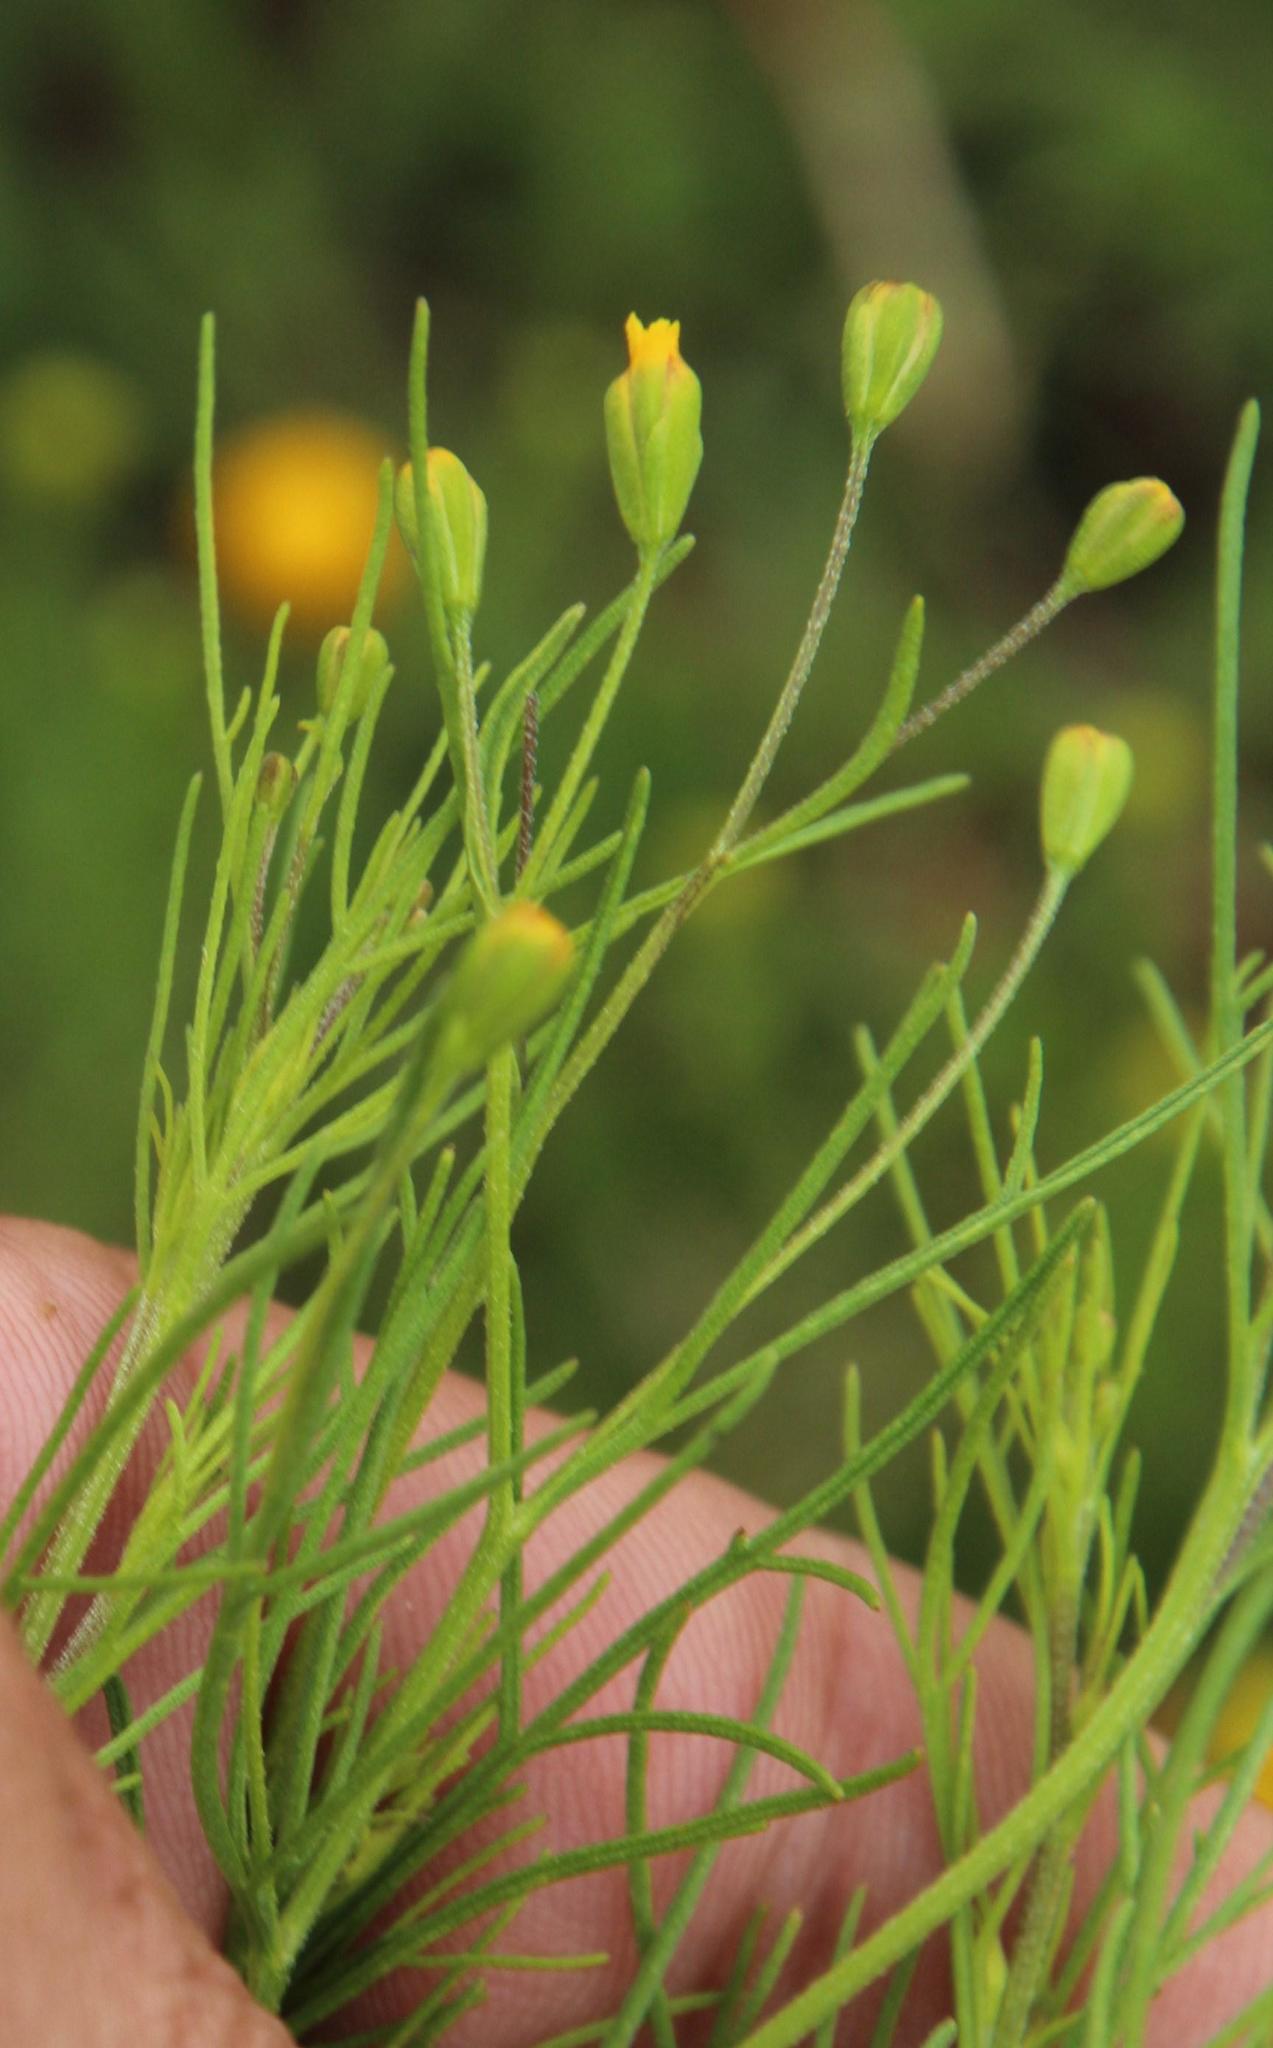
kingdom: Plantae
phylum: Tracheophyta
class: Magnoliopsida
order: Asterales
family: Asteraceae
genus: Schkuhria
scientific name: Schkuhria pinnata
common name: Dwarf marigold
